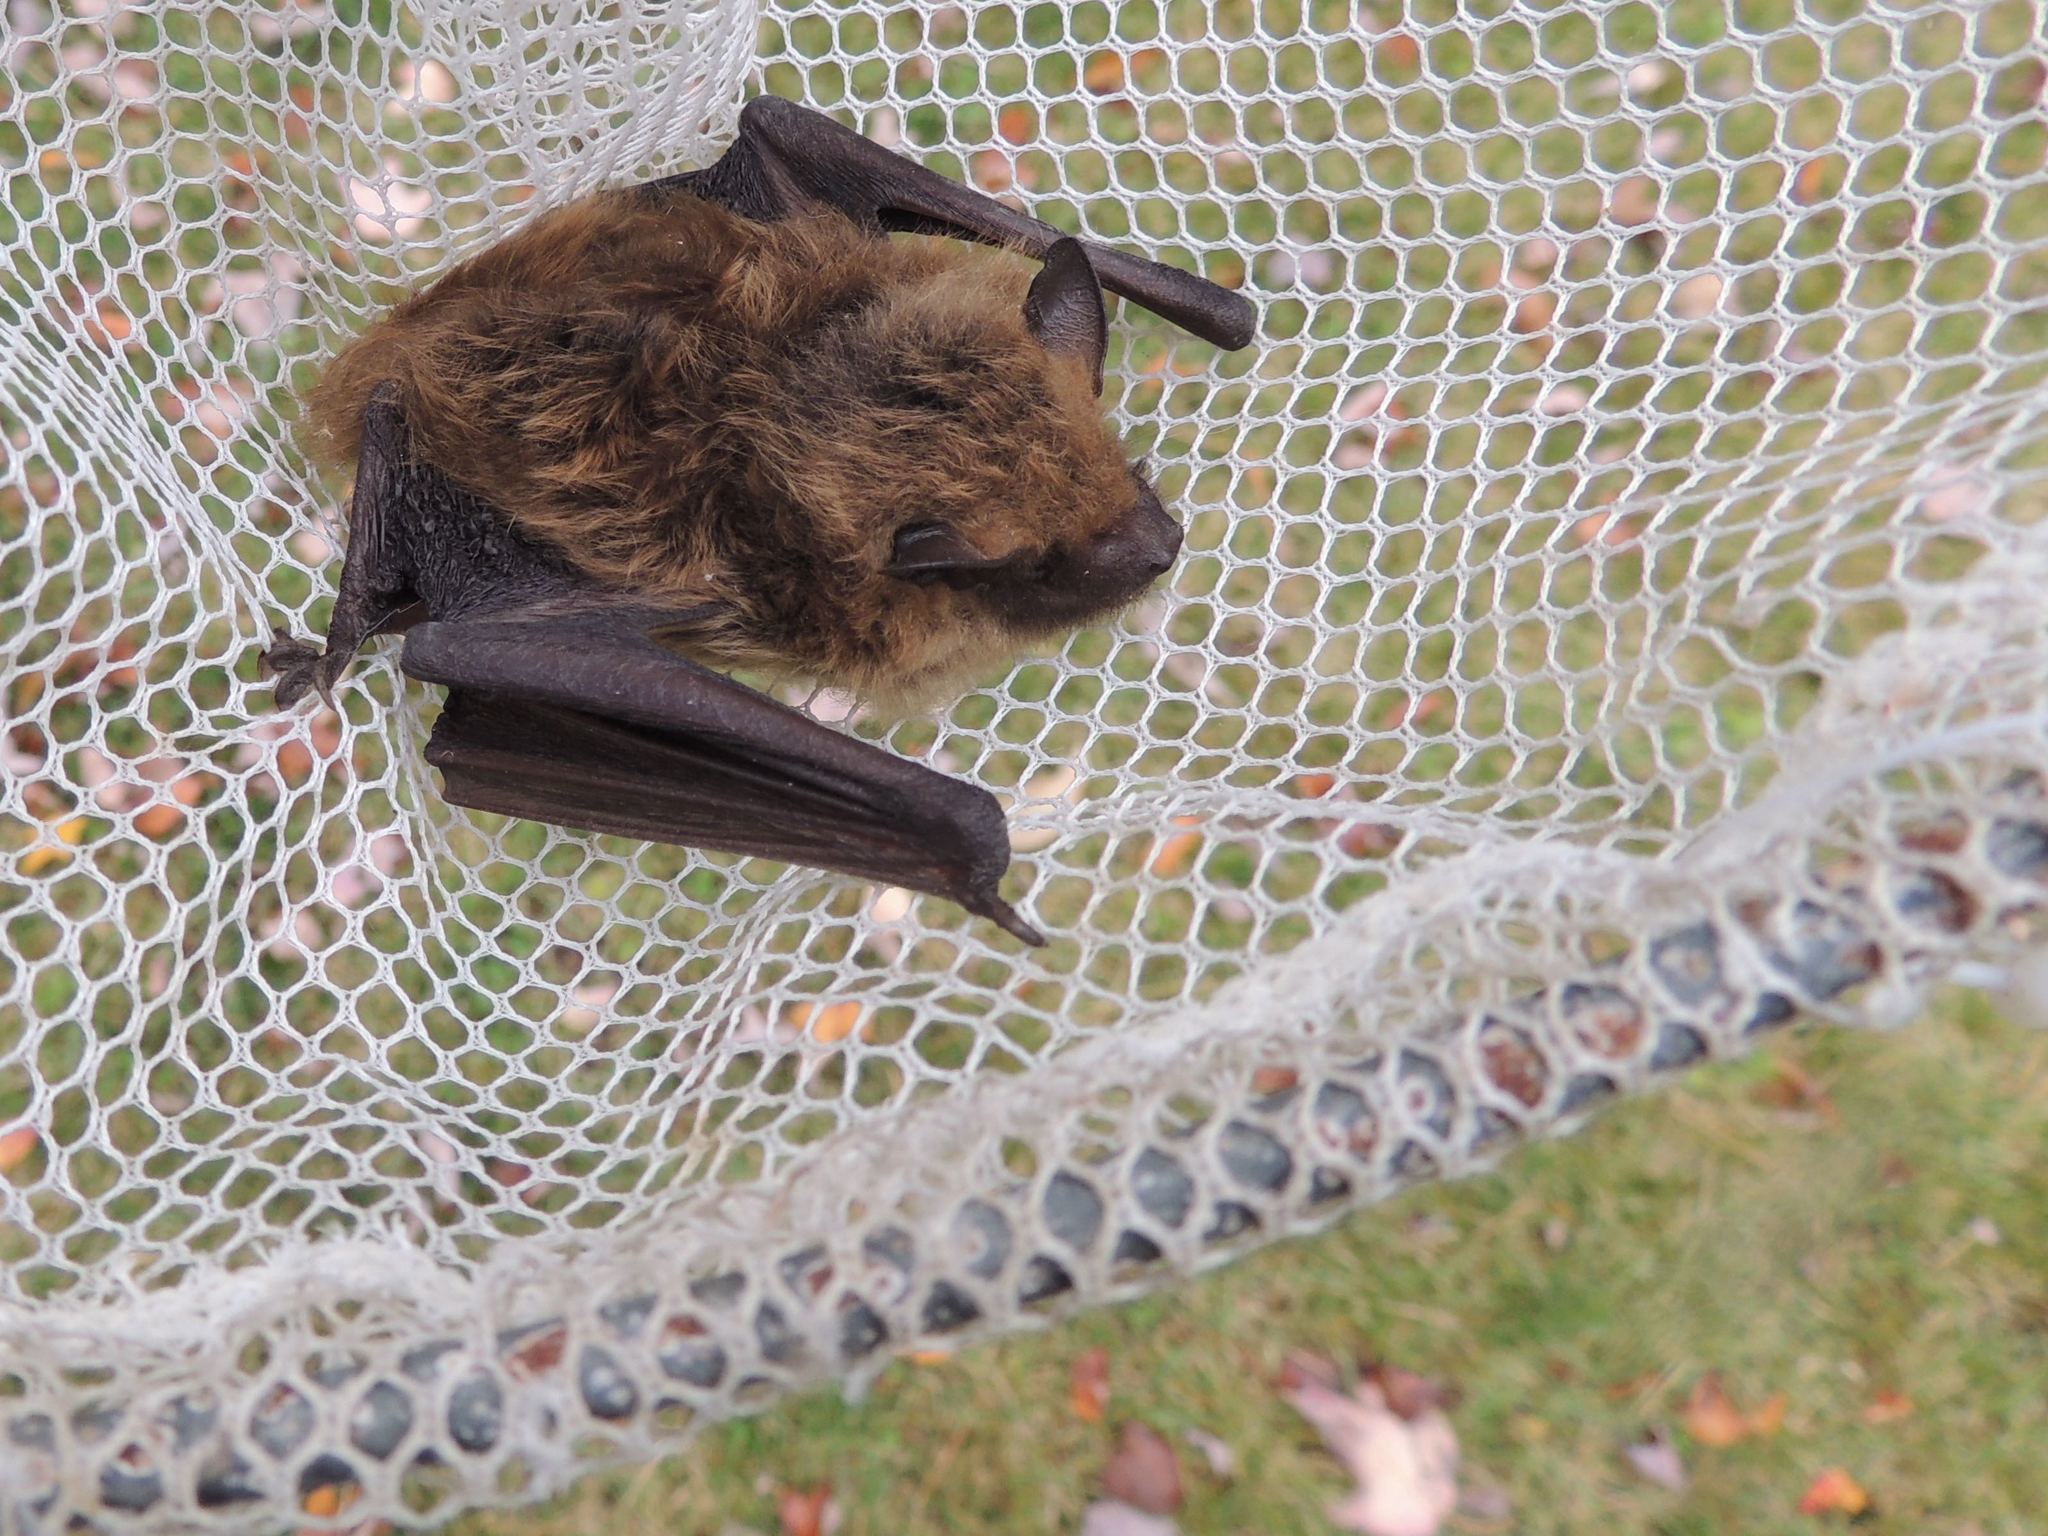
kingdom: Animalia
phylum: Chordata
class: Mammalia
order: Chiroptera
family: Vespertilionidae
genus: Eptesicus
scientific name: Eptesicus fuscus
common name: Big brown bat
